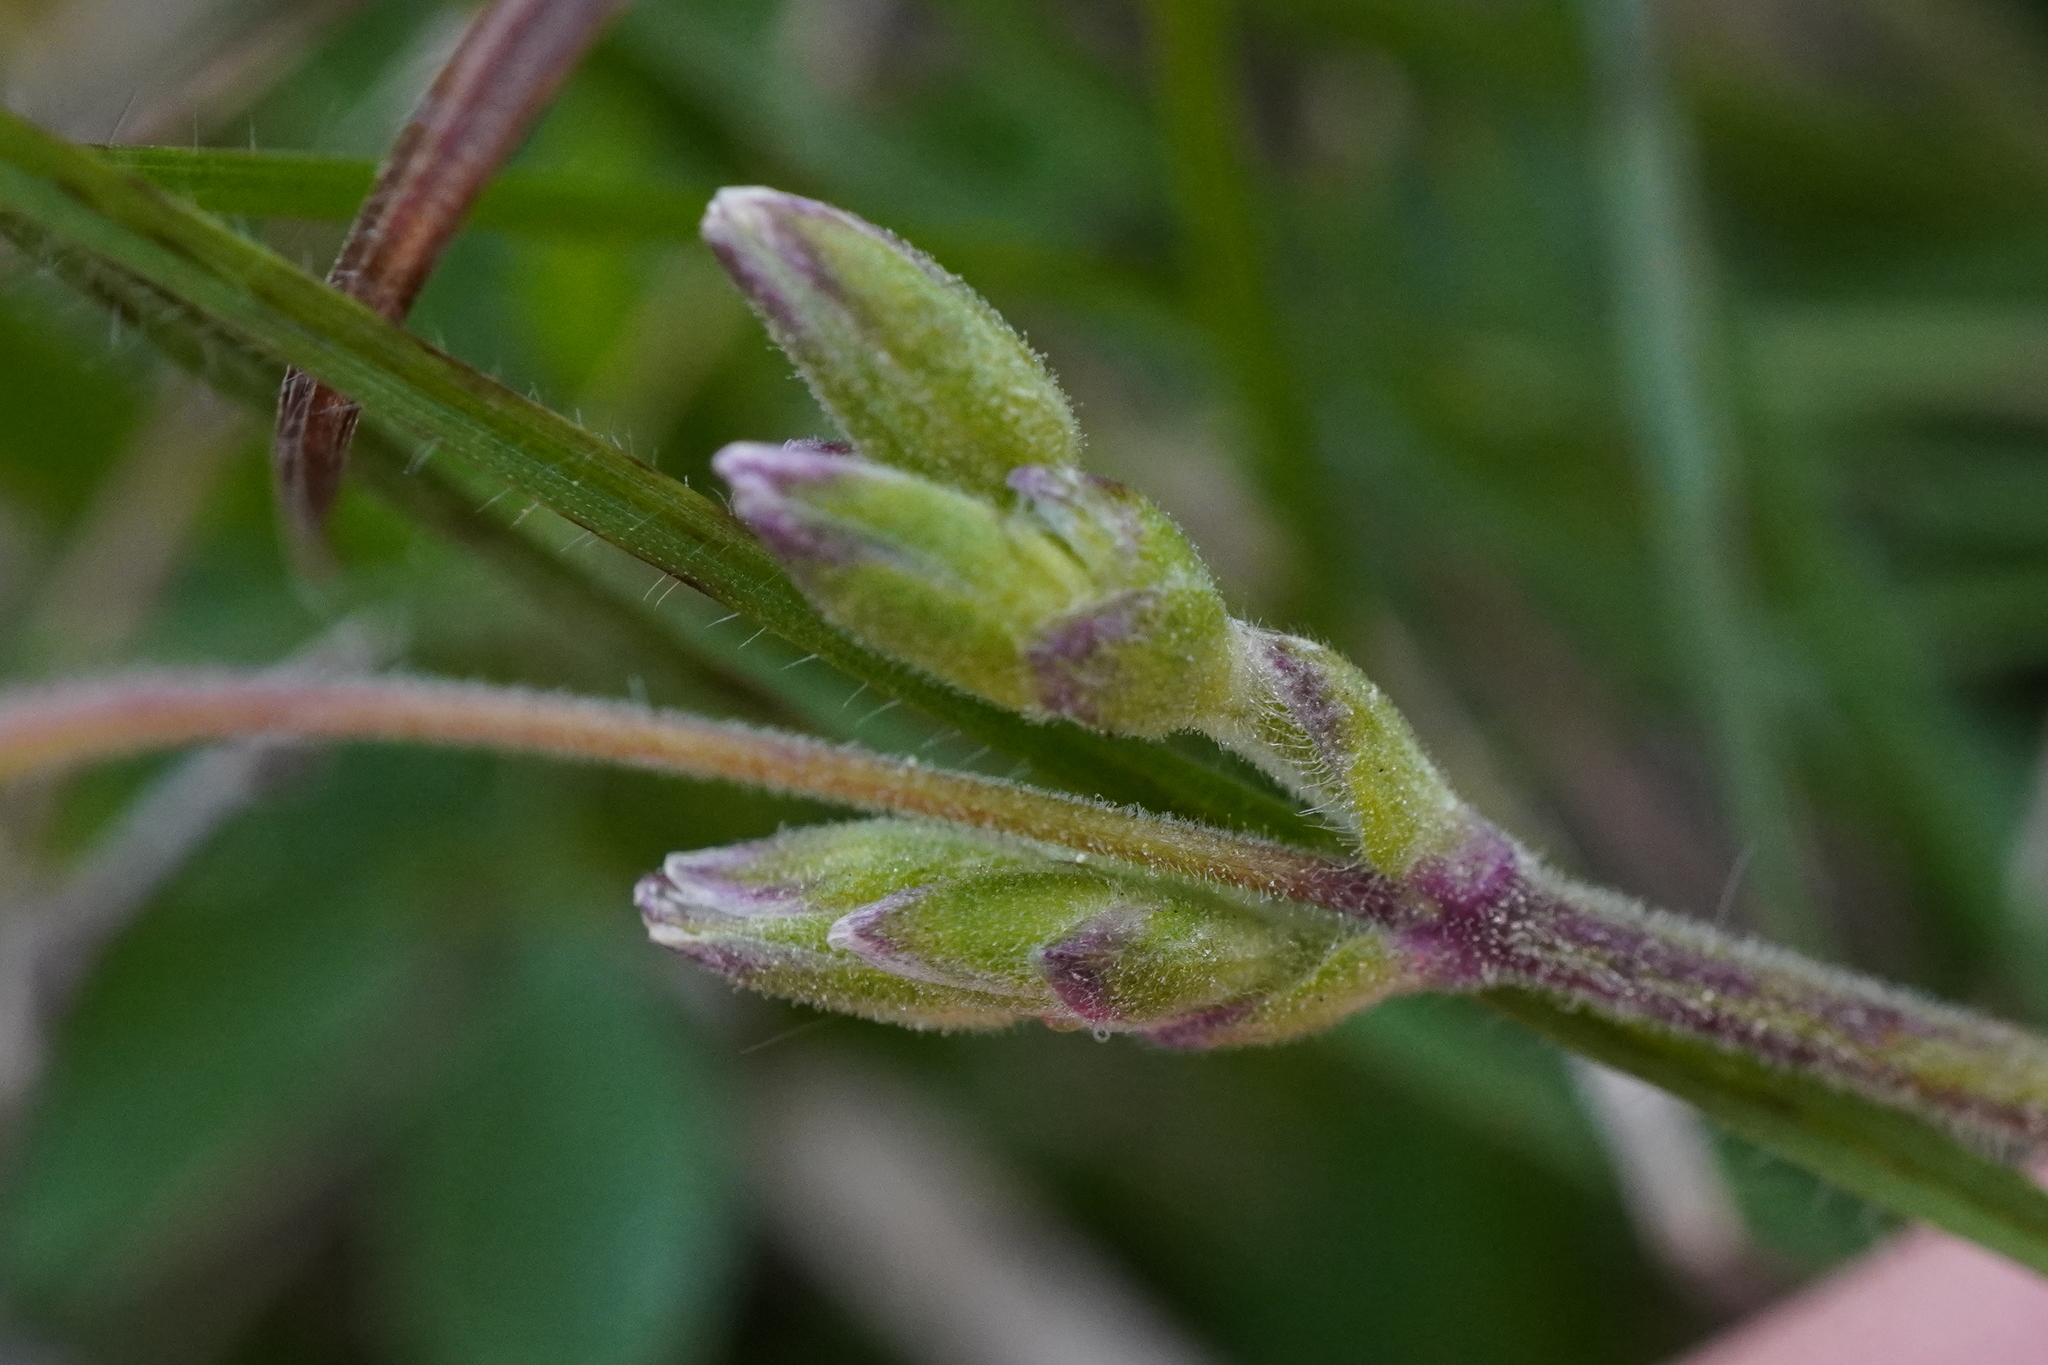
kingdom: Plantae
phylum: Tracheophyta
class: Magnoliopsida
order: Caryophyllales
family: Caryophyllaceae
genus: Cerastium
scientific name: Cerastium arvense
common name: Field mouse-ear
